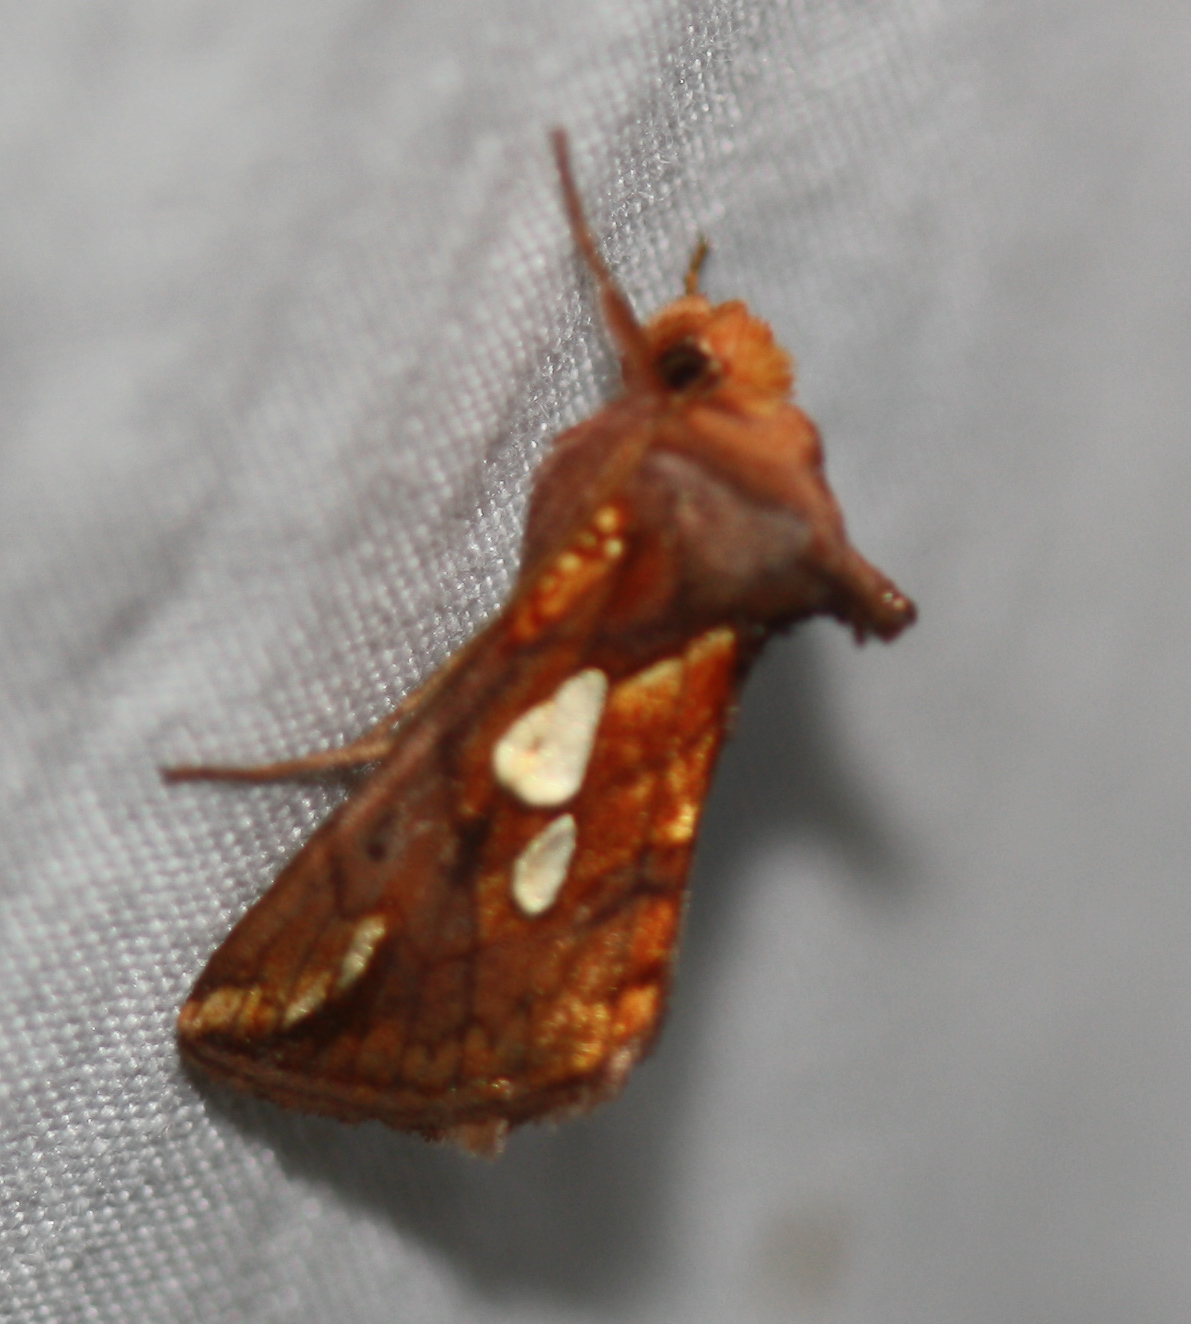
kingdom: Animalia
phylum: Arthropoda
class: Insecta
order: Lepidoptera
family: Noctuidae
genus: Plusia
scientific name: Plusia putnami
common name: Lempke's gold spot
